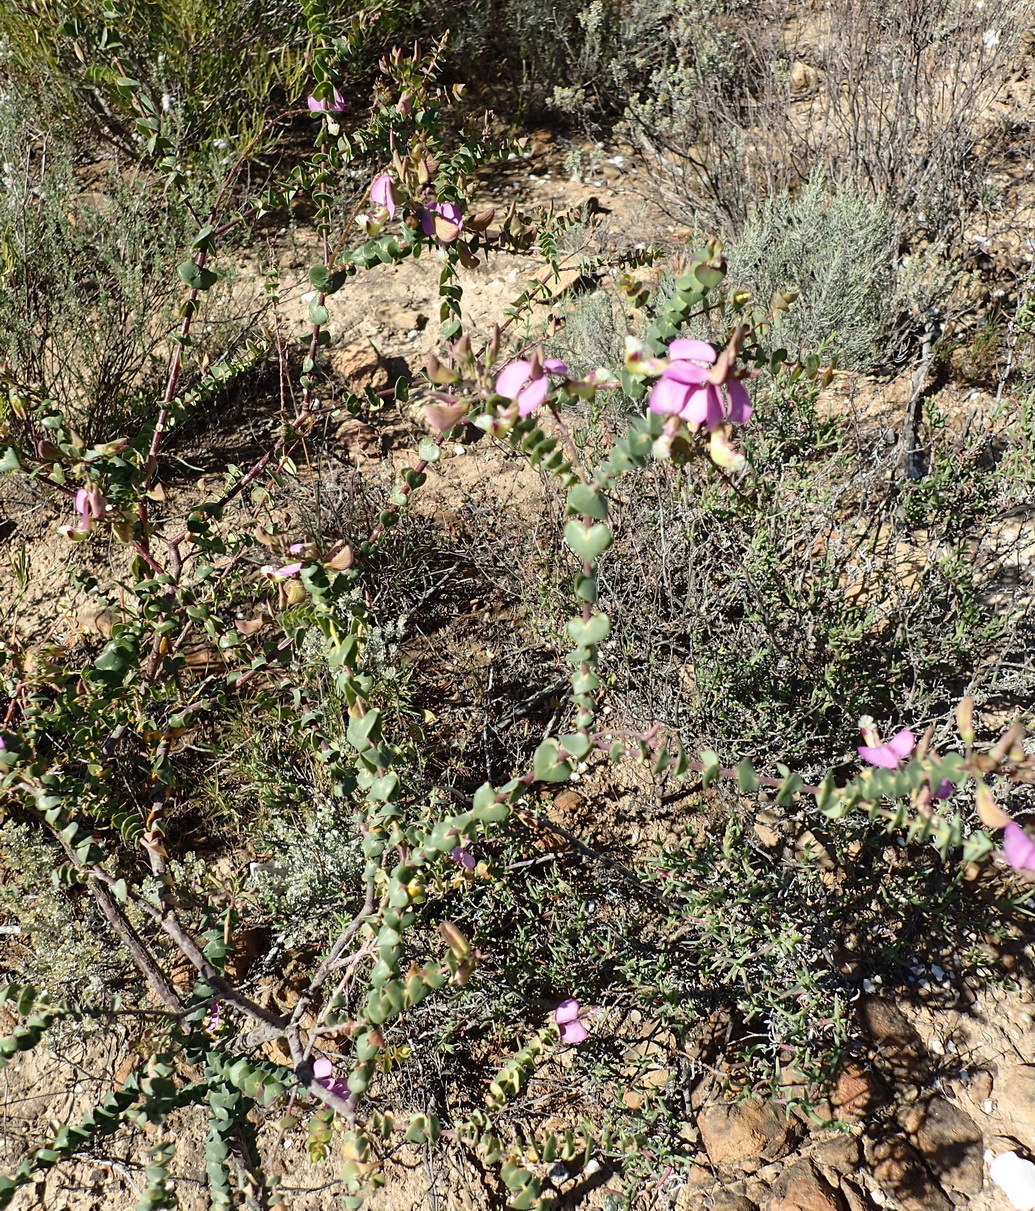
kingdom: Plantae
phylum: Tracheophyta
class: Magnoliopsida
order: Fabales
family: Polygalaceae
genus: Polygala
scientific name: Polygala fruticosa
